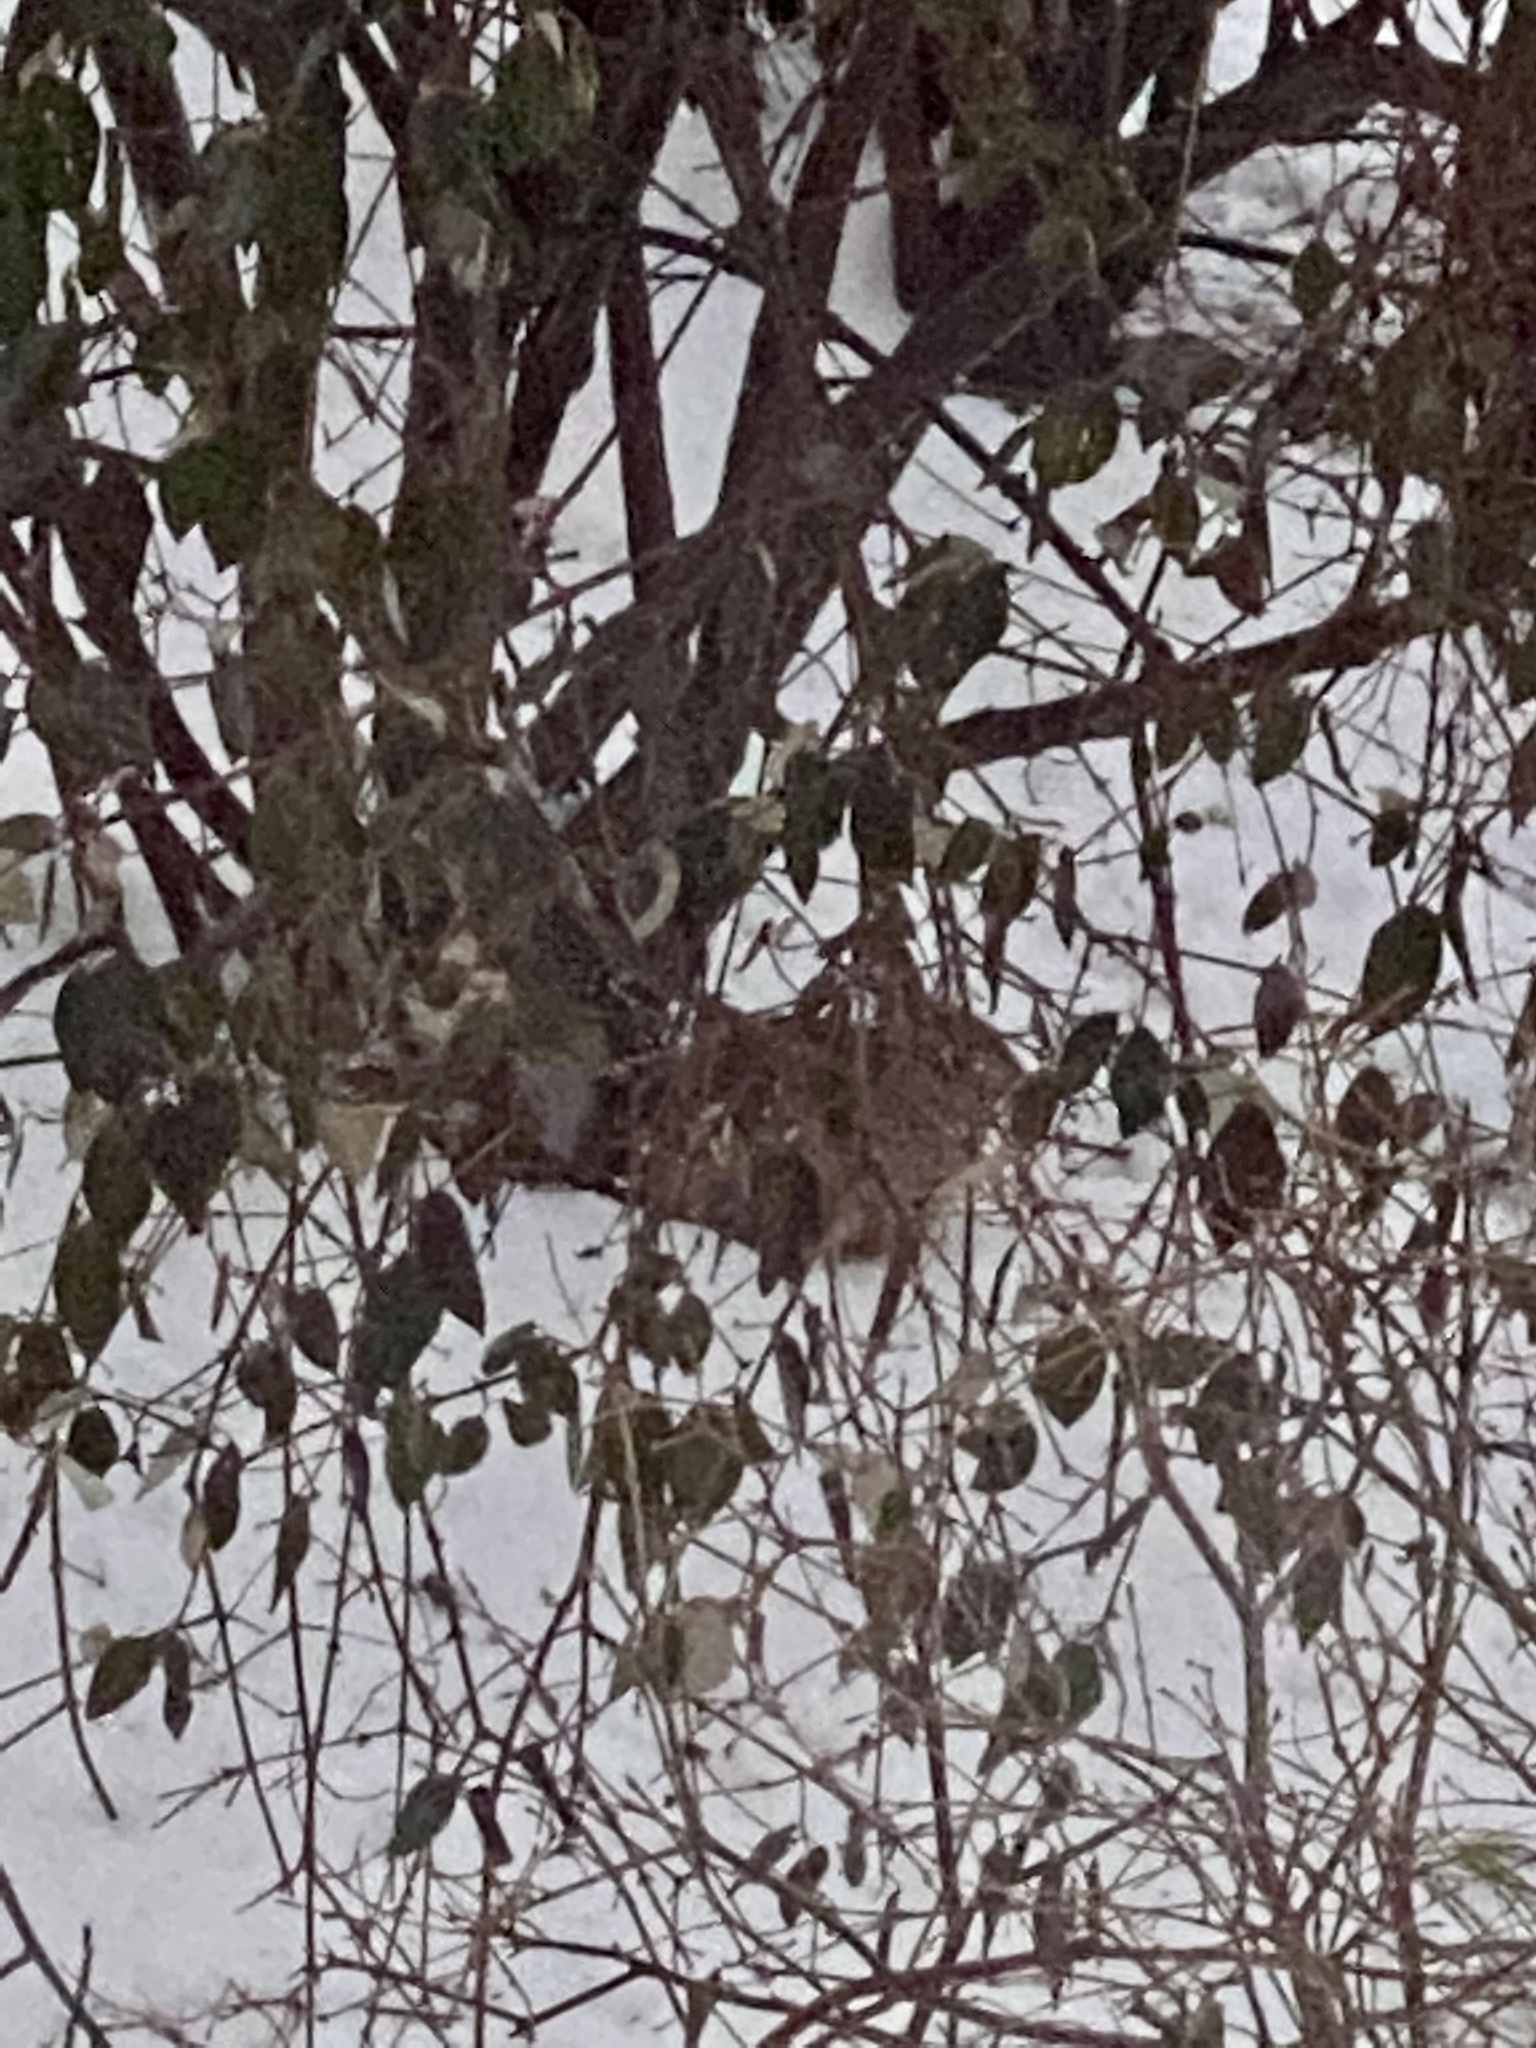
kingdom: Animalia
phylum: Chordata
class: Mammalia
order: Lagomorpha
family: Leporidae
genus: Sylvilagus
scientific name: Sylvilagus floridanus
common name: Eastern cottontail
